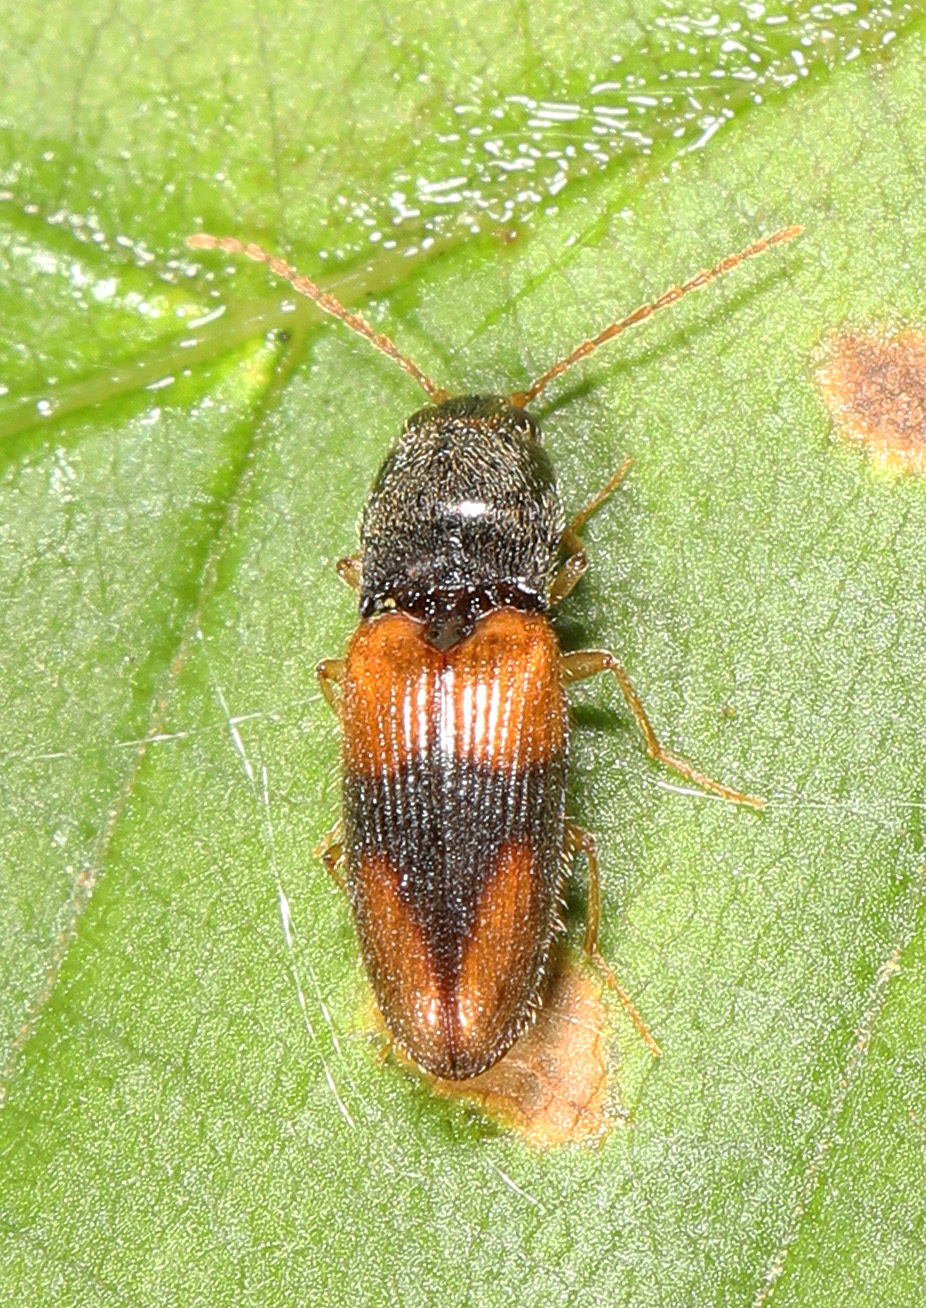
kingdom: Animalia
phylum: Arthropoda
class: Insecta
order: Coleoptera
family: Elateridae
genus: Horistonotus
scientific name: Horistonotus curiatus
